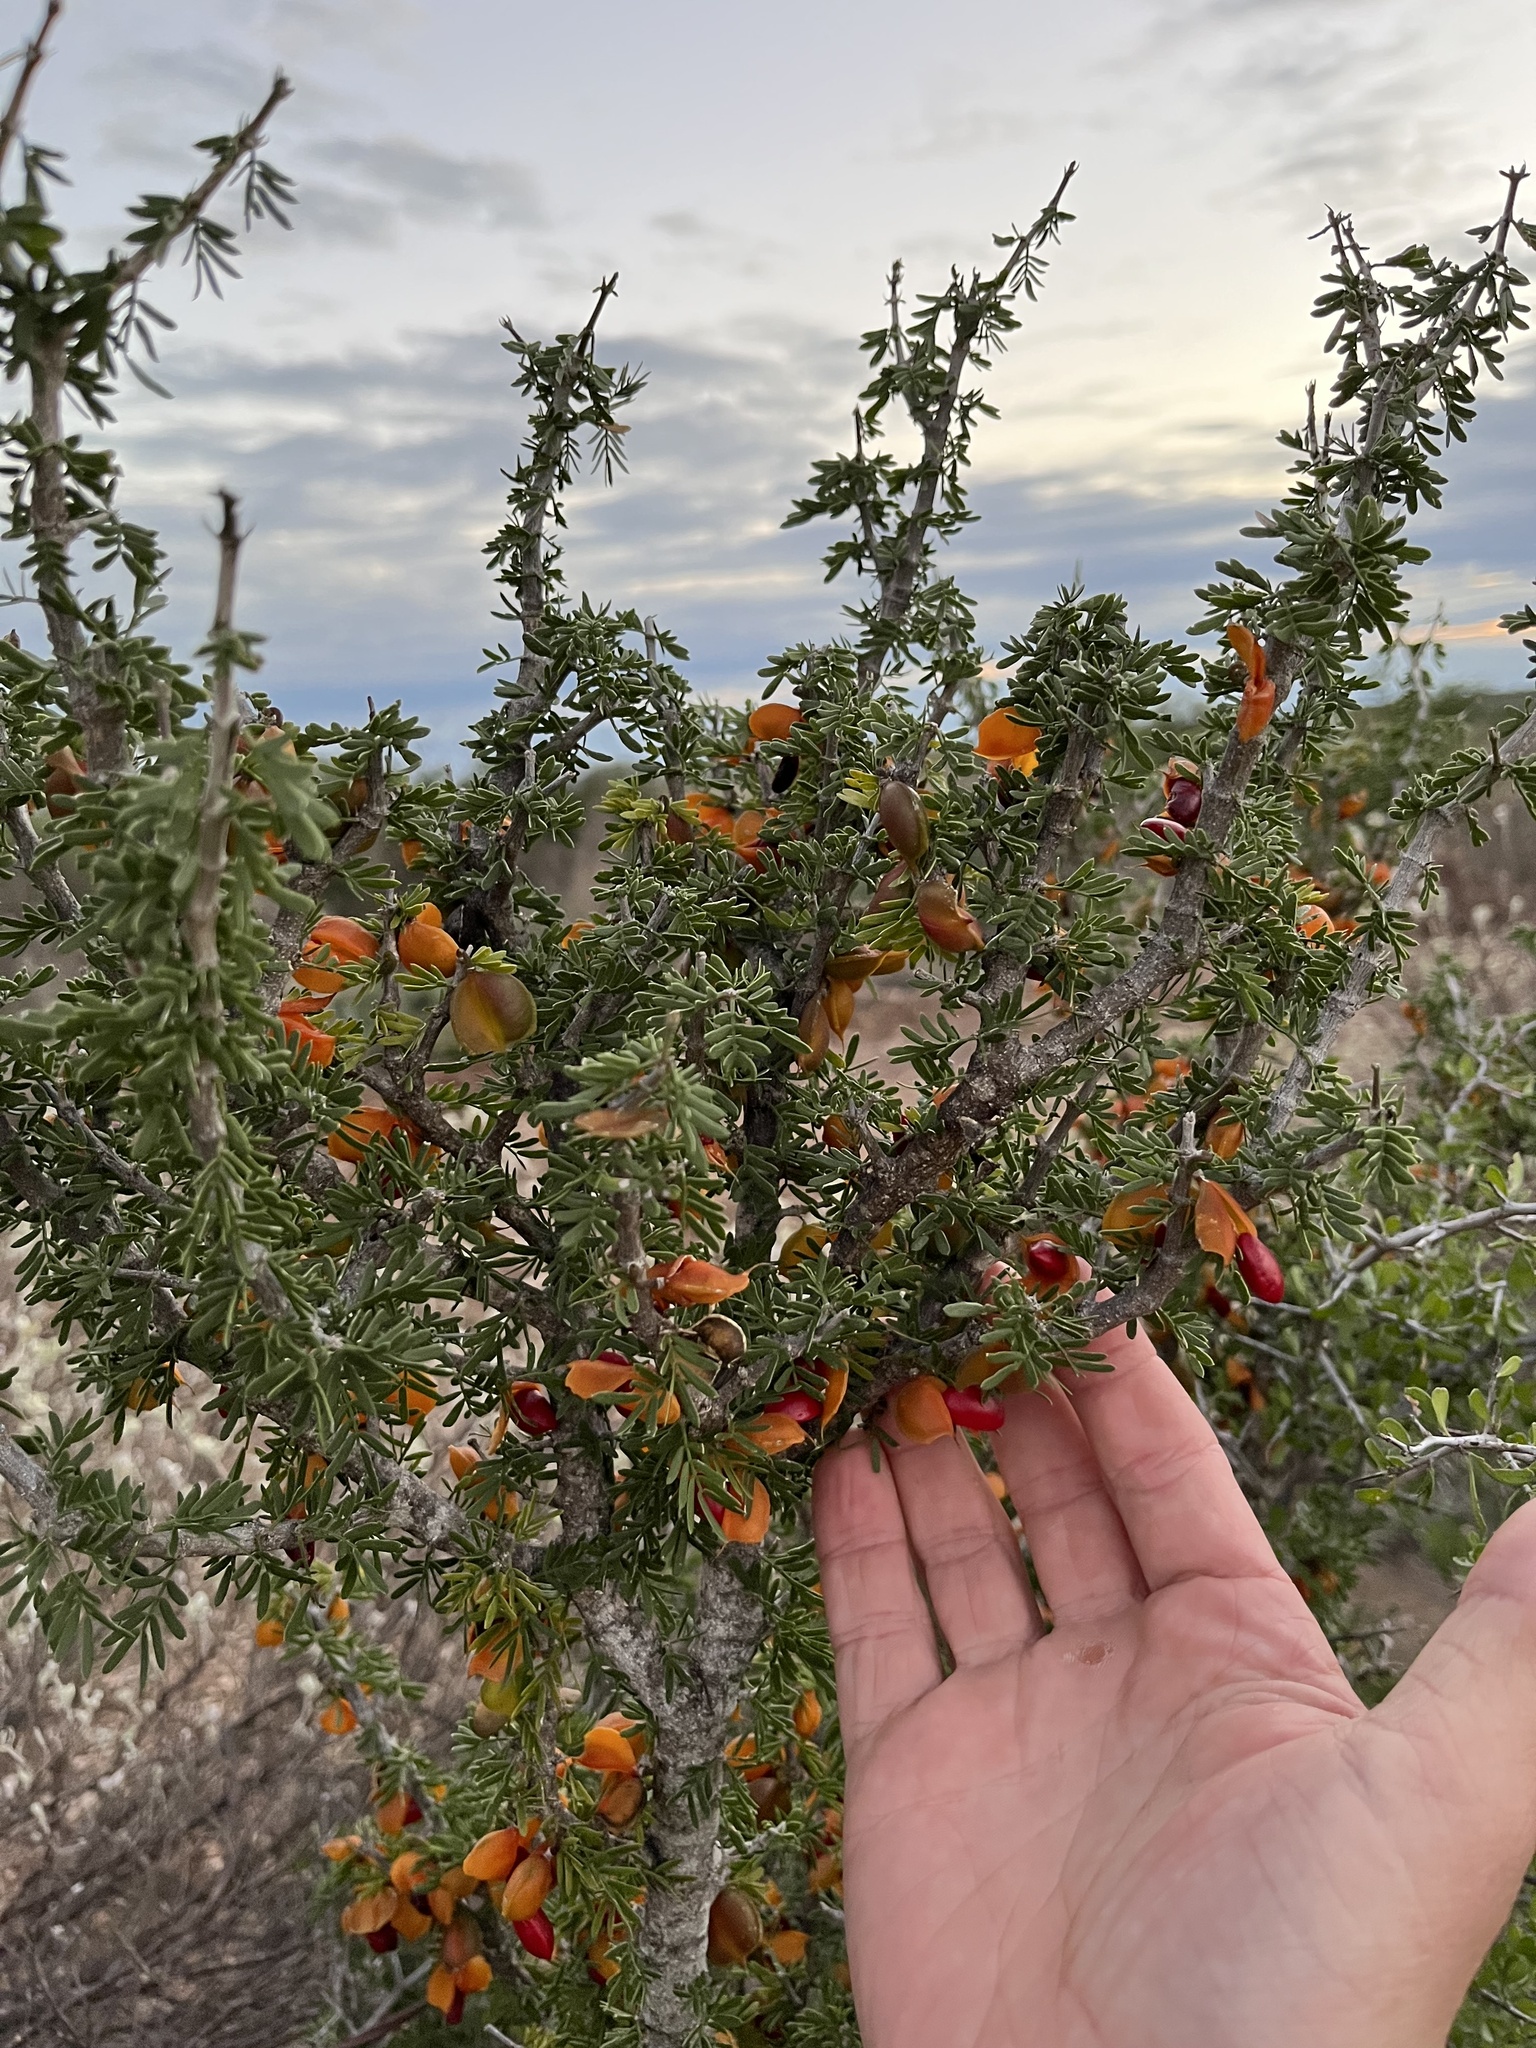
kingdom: Plantae
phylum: Tracheophyta
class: Magnoliopsida
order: Zygophyllales
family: Zygophyllaceae
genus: Porlieria
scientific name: Porlieria angustifolia
